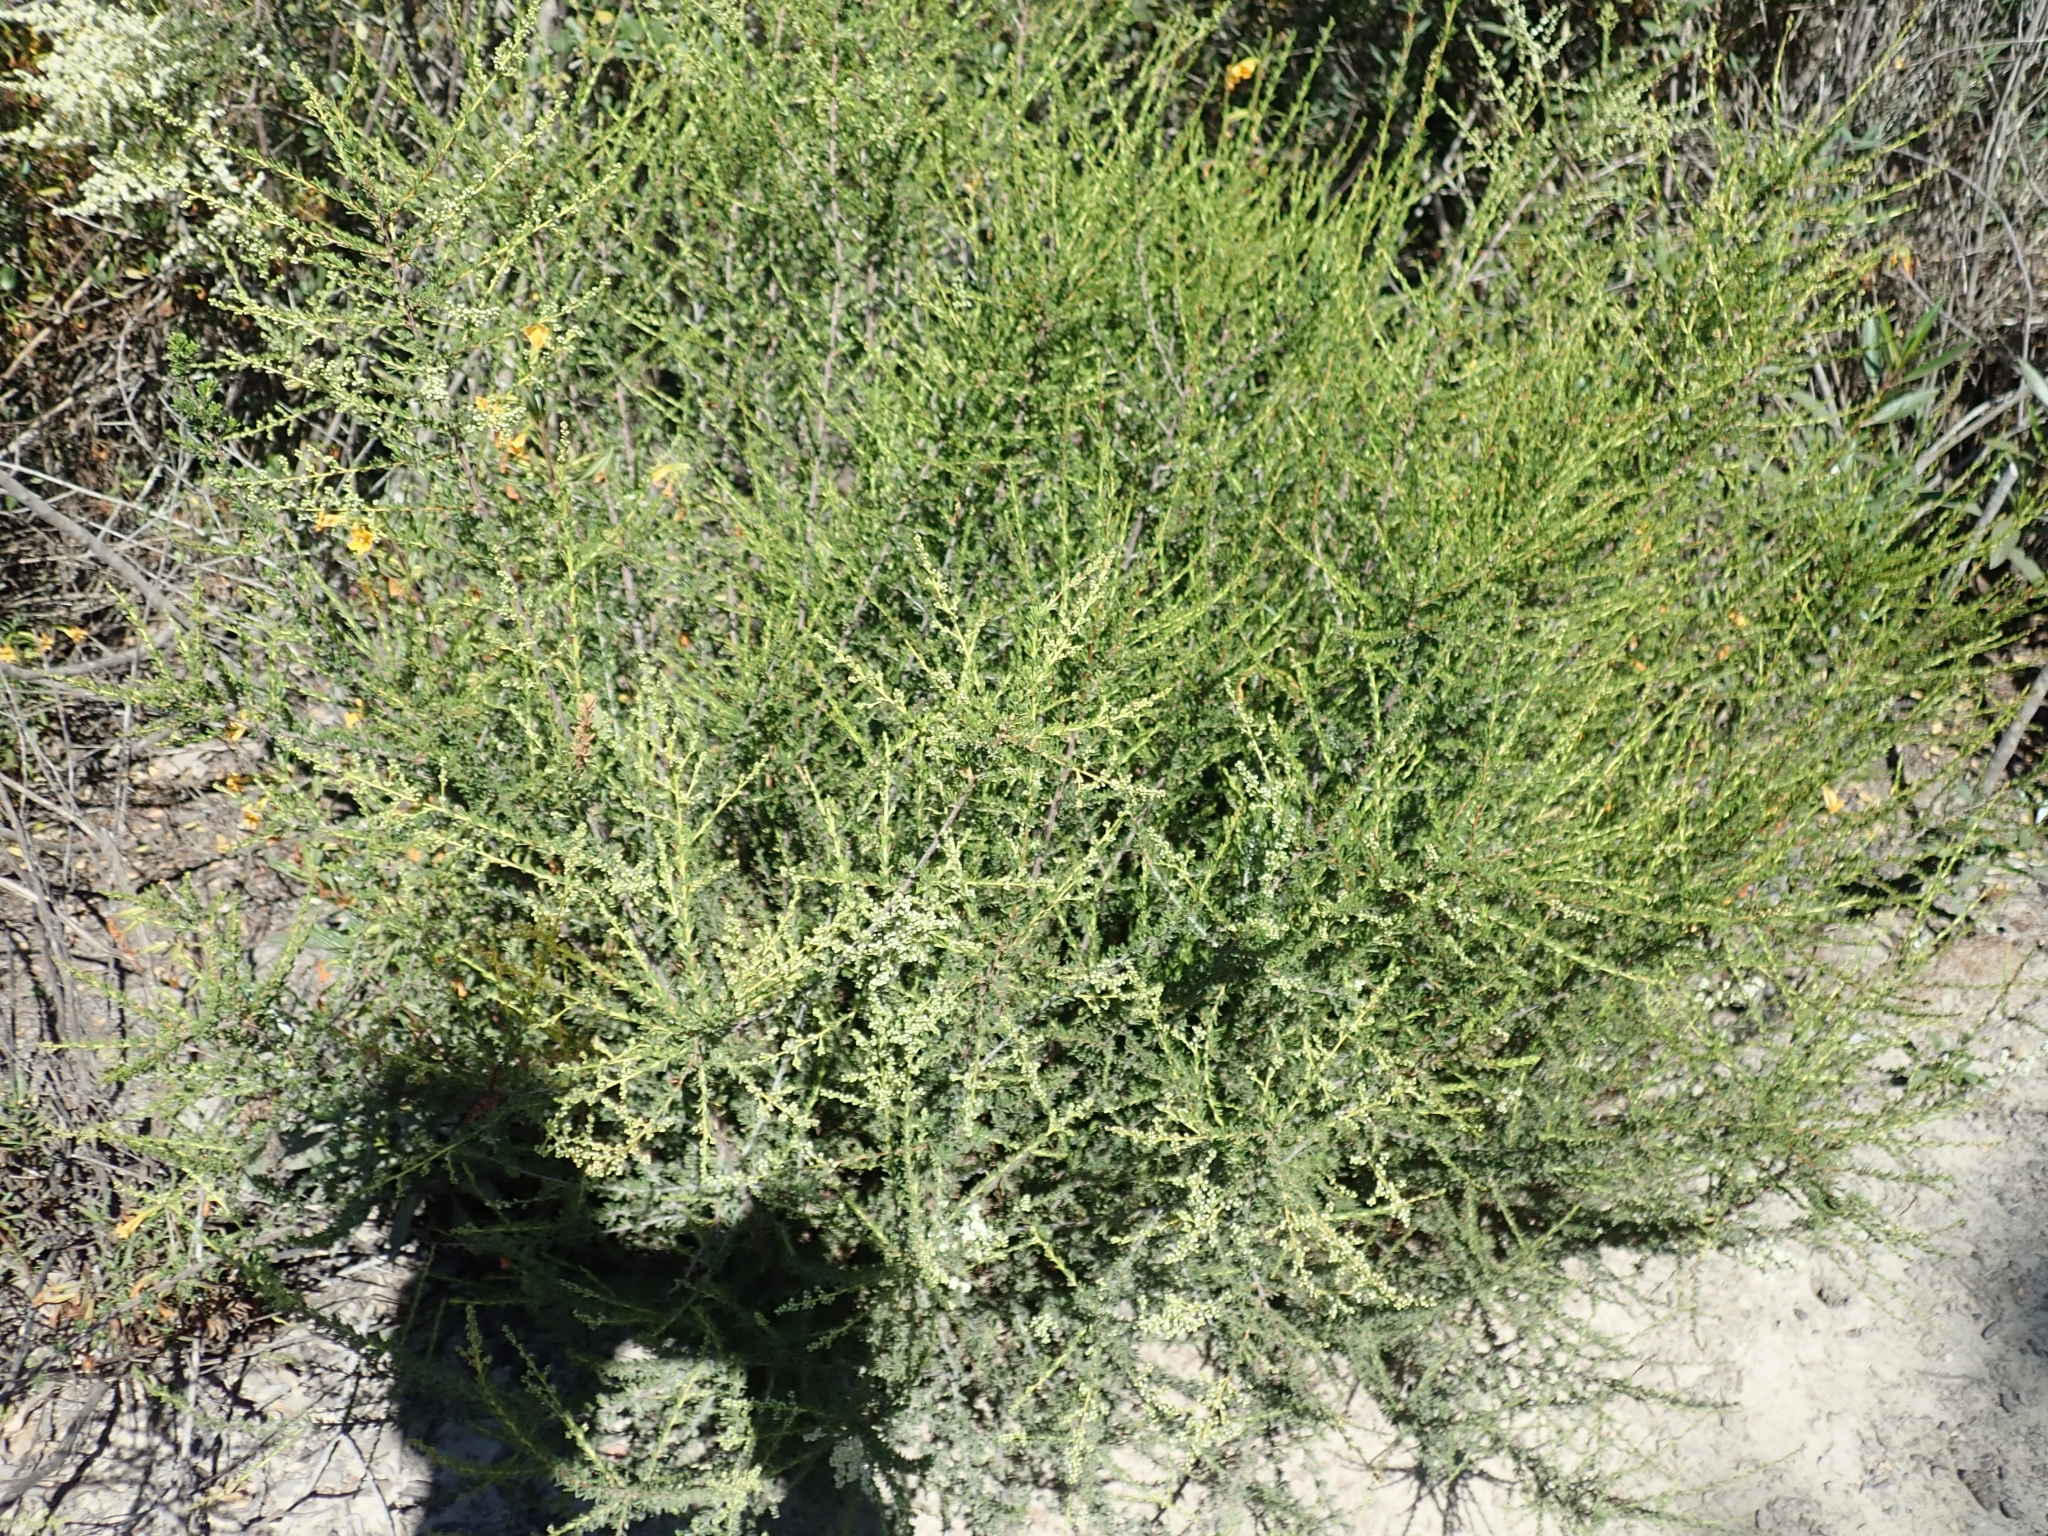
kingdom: Plantae
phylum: Tracheophyta
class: Magnoliopsida
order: Rosales
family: Rosaceae
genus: Adenostoma
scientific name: Adenostoma fasciculatum
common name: Chamise
